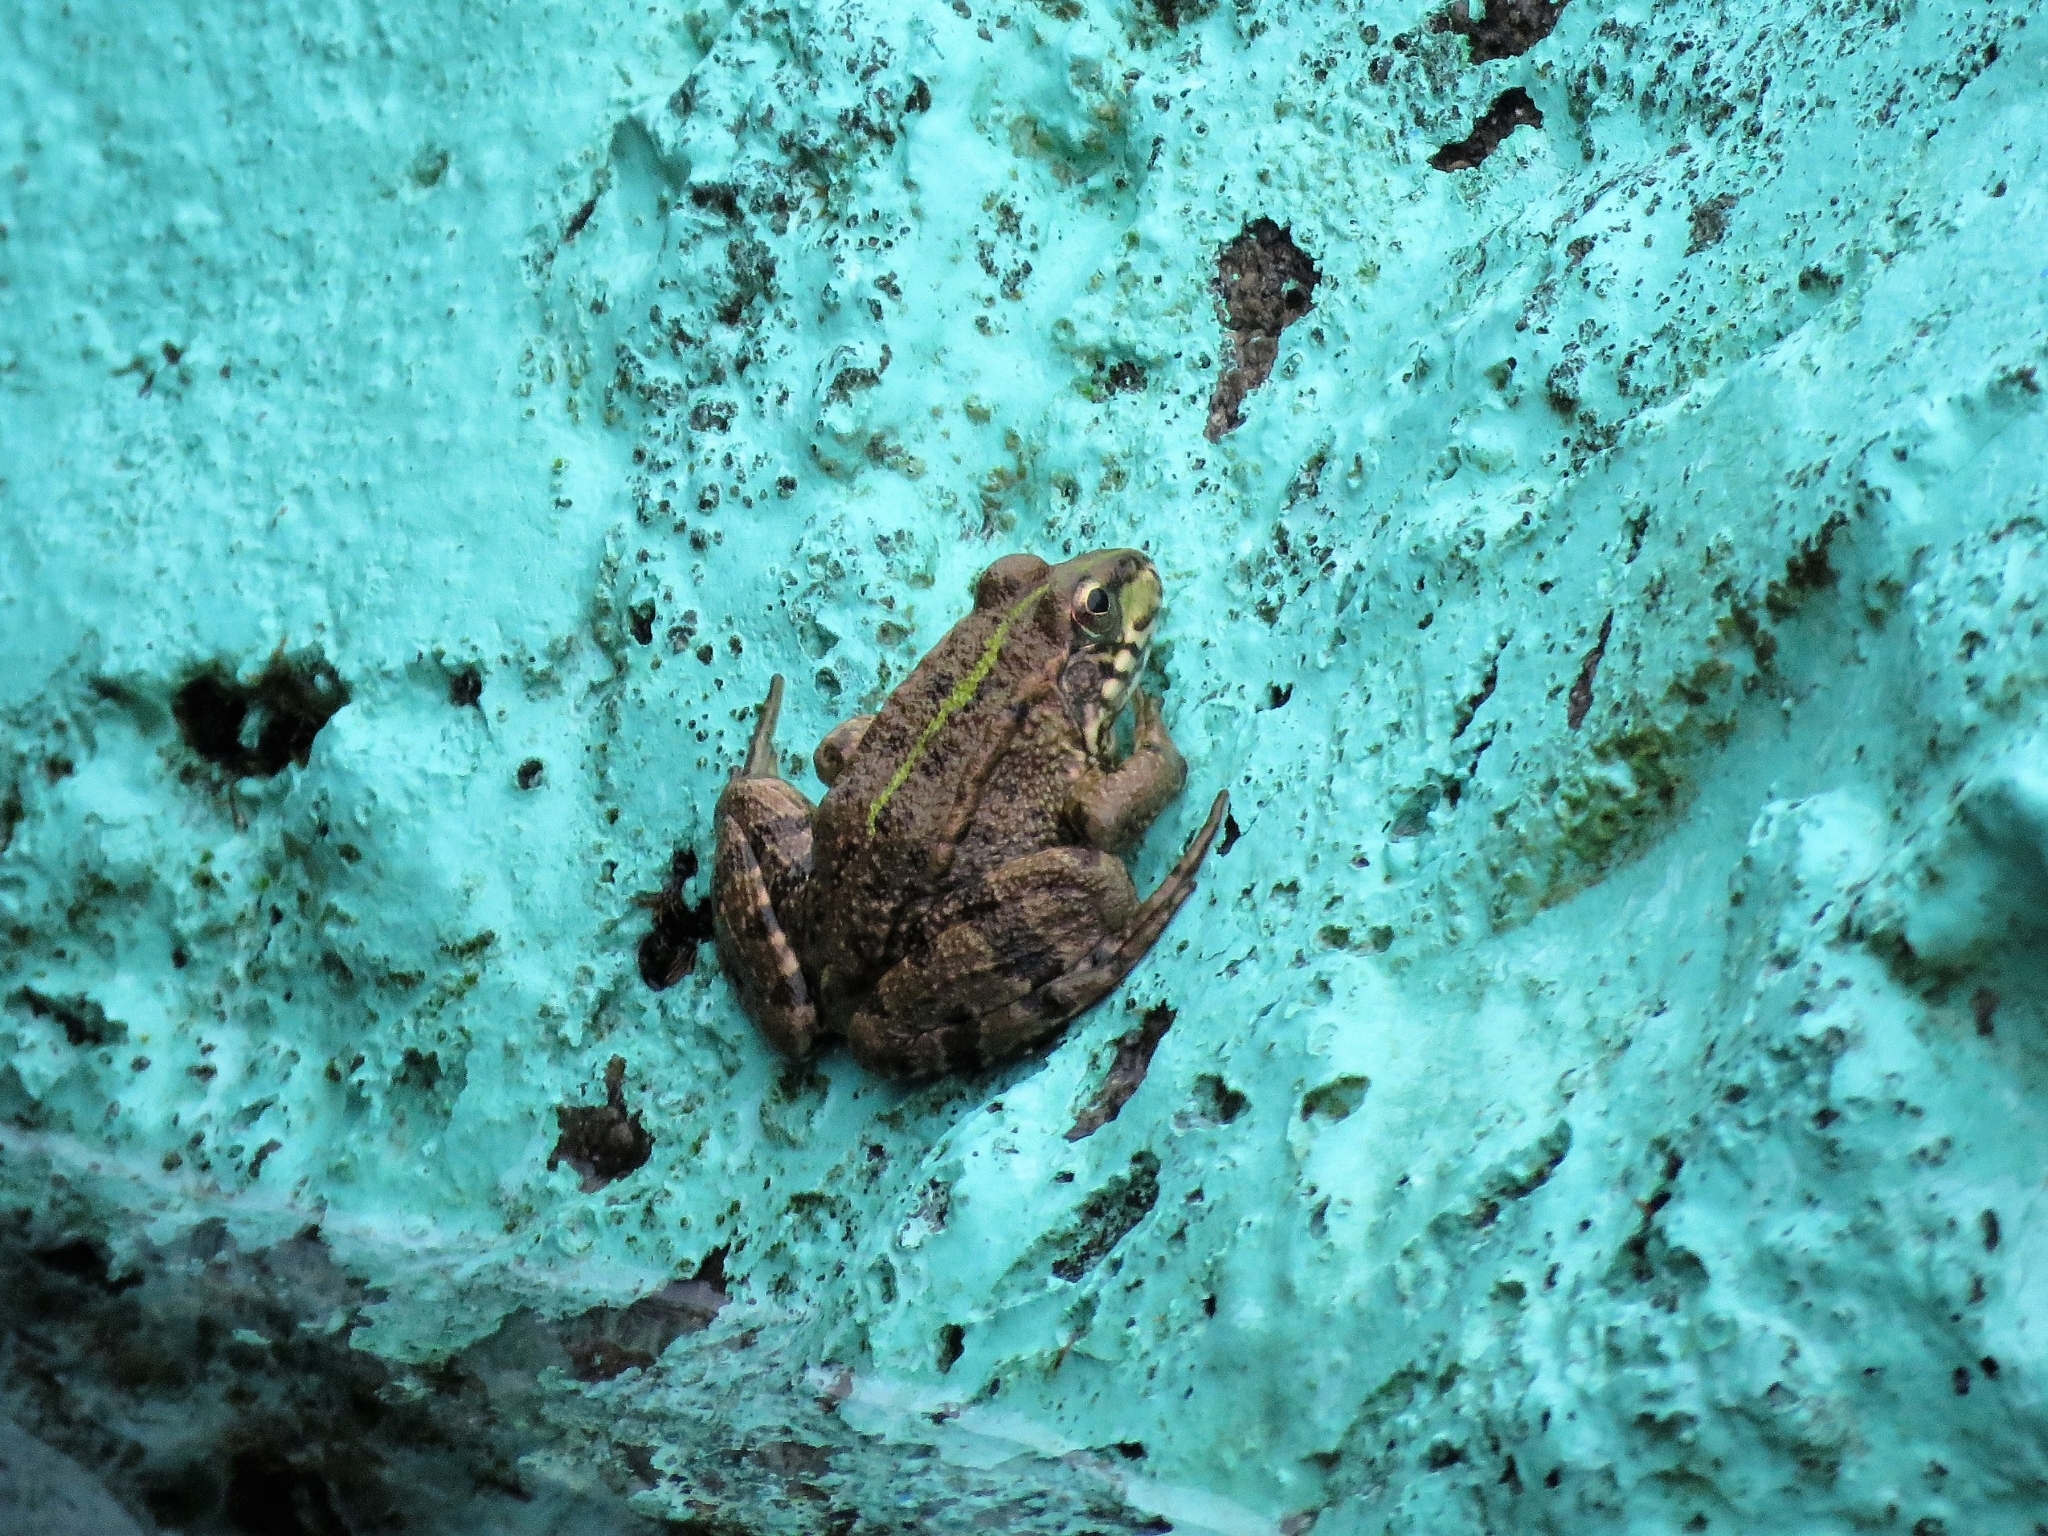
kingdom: Animalia
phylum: Chordata
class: Amphibia
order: Anura
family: Ranidae
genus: Pelophylax
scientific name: Pelophylax perezi
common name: Perez's frog
